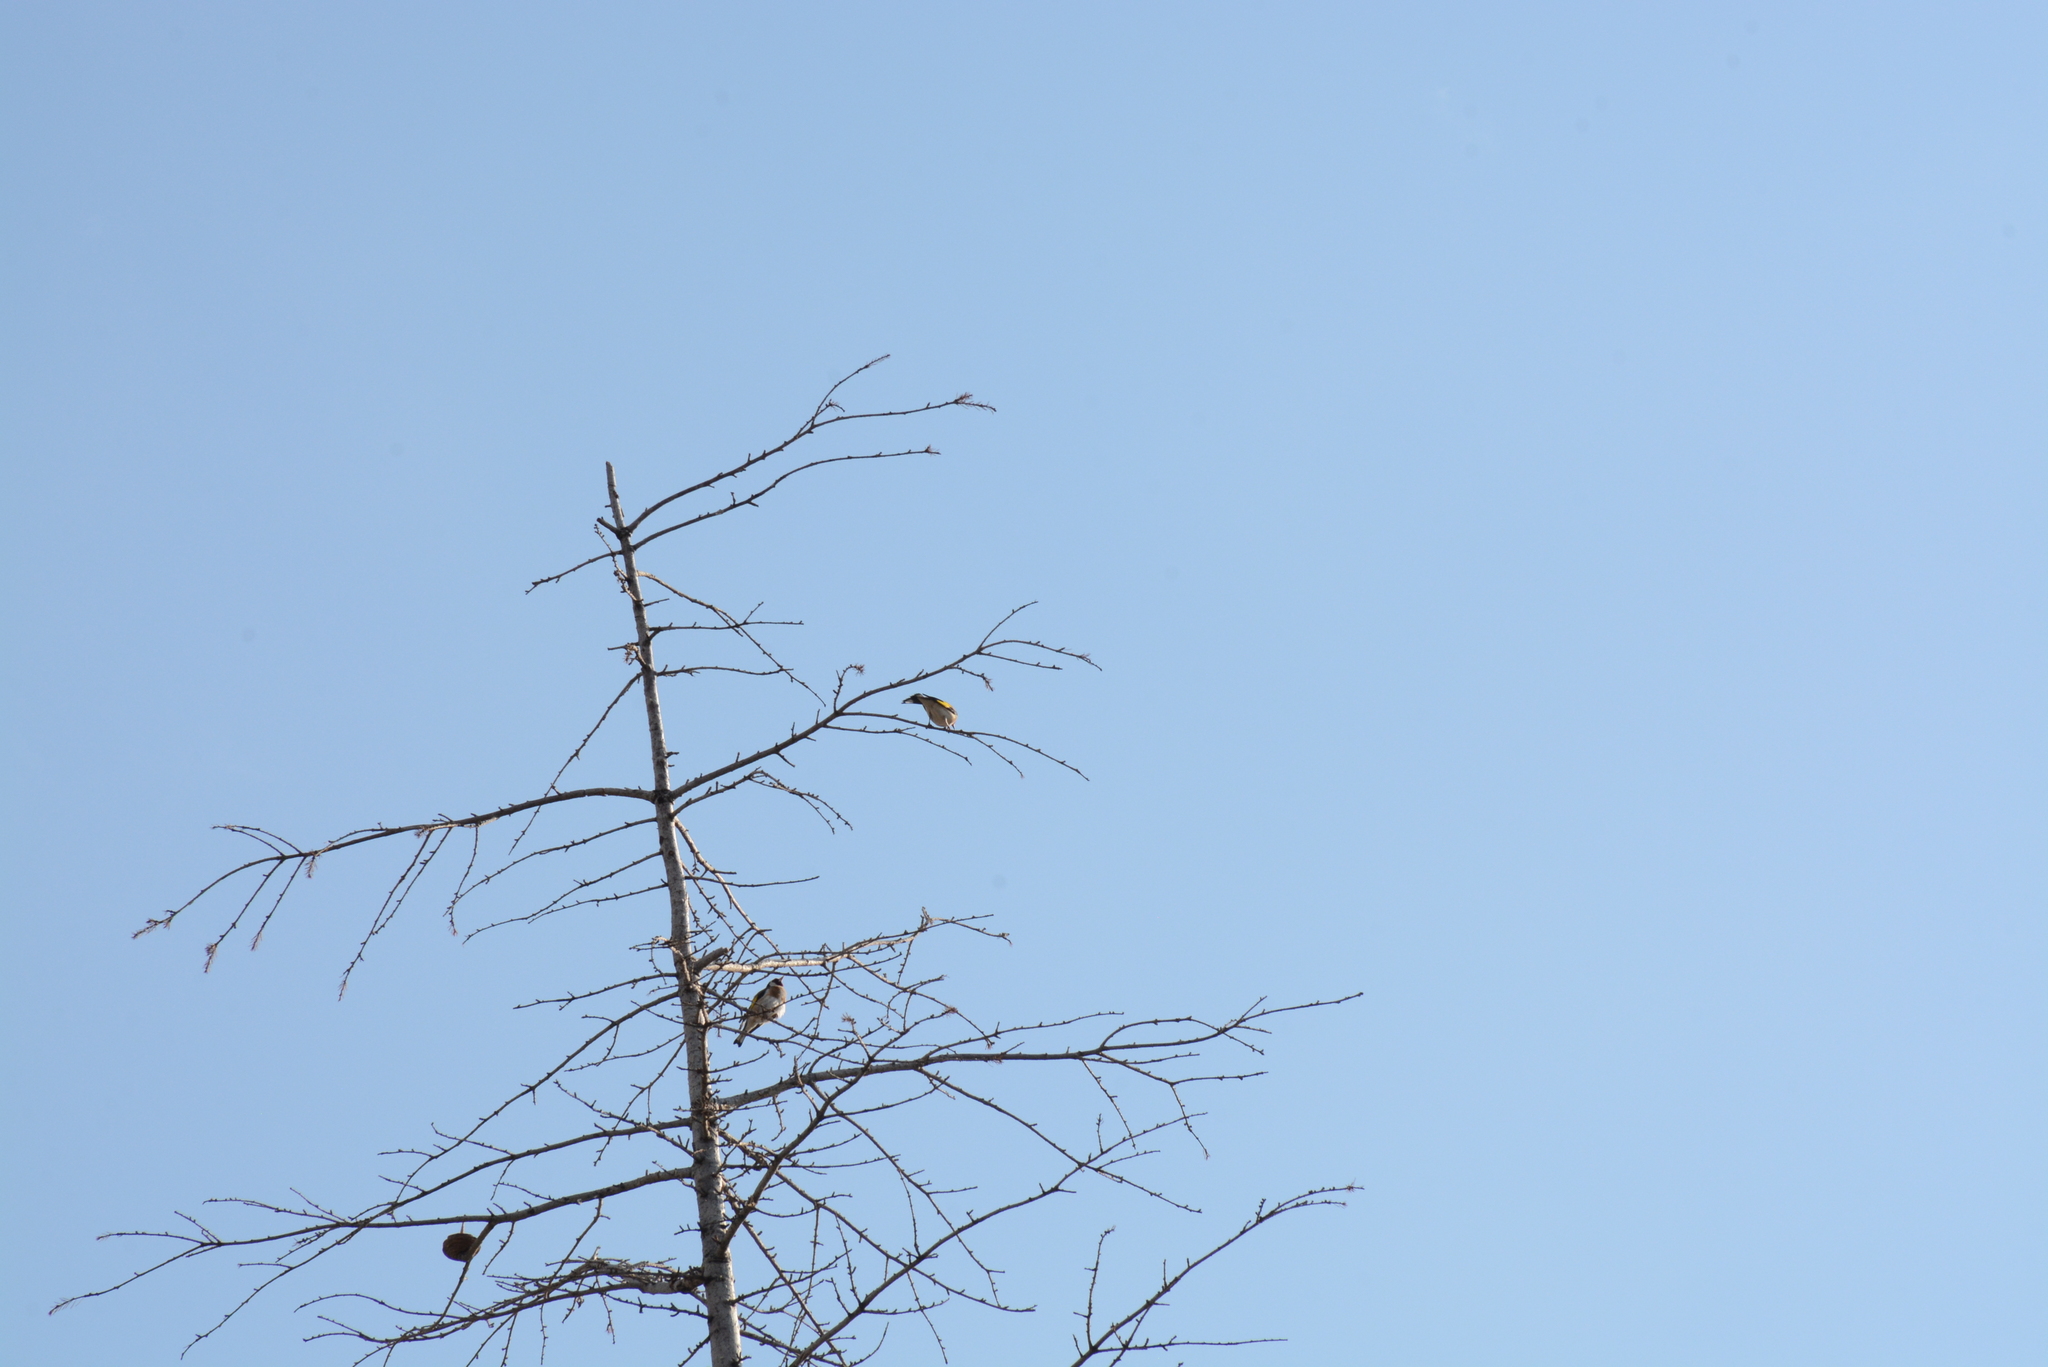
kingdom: Animalia
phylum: Chordata
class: Aves
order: Passeriformes
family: Fringillidae
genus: Carduelis
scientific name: Carduelis carduelis
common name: European goldfinch
